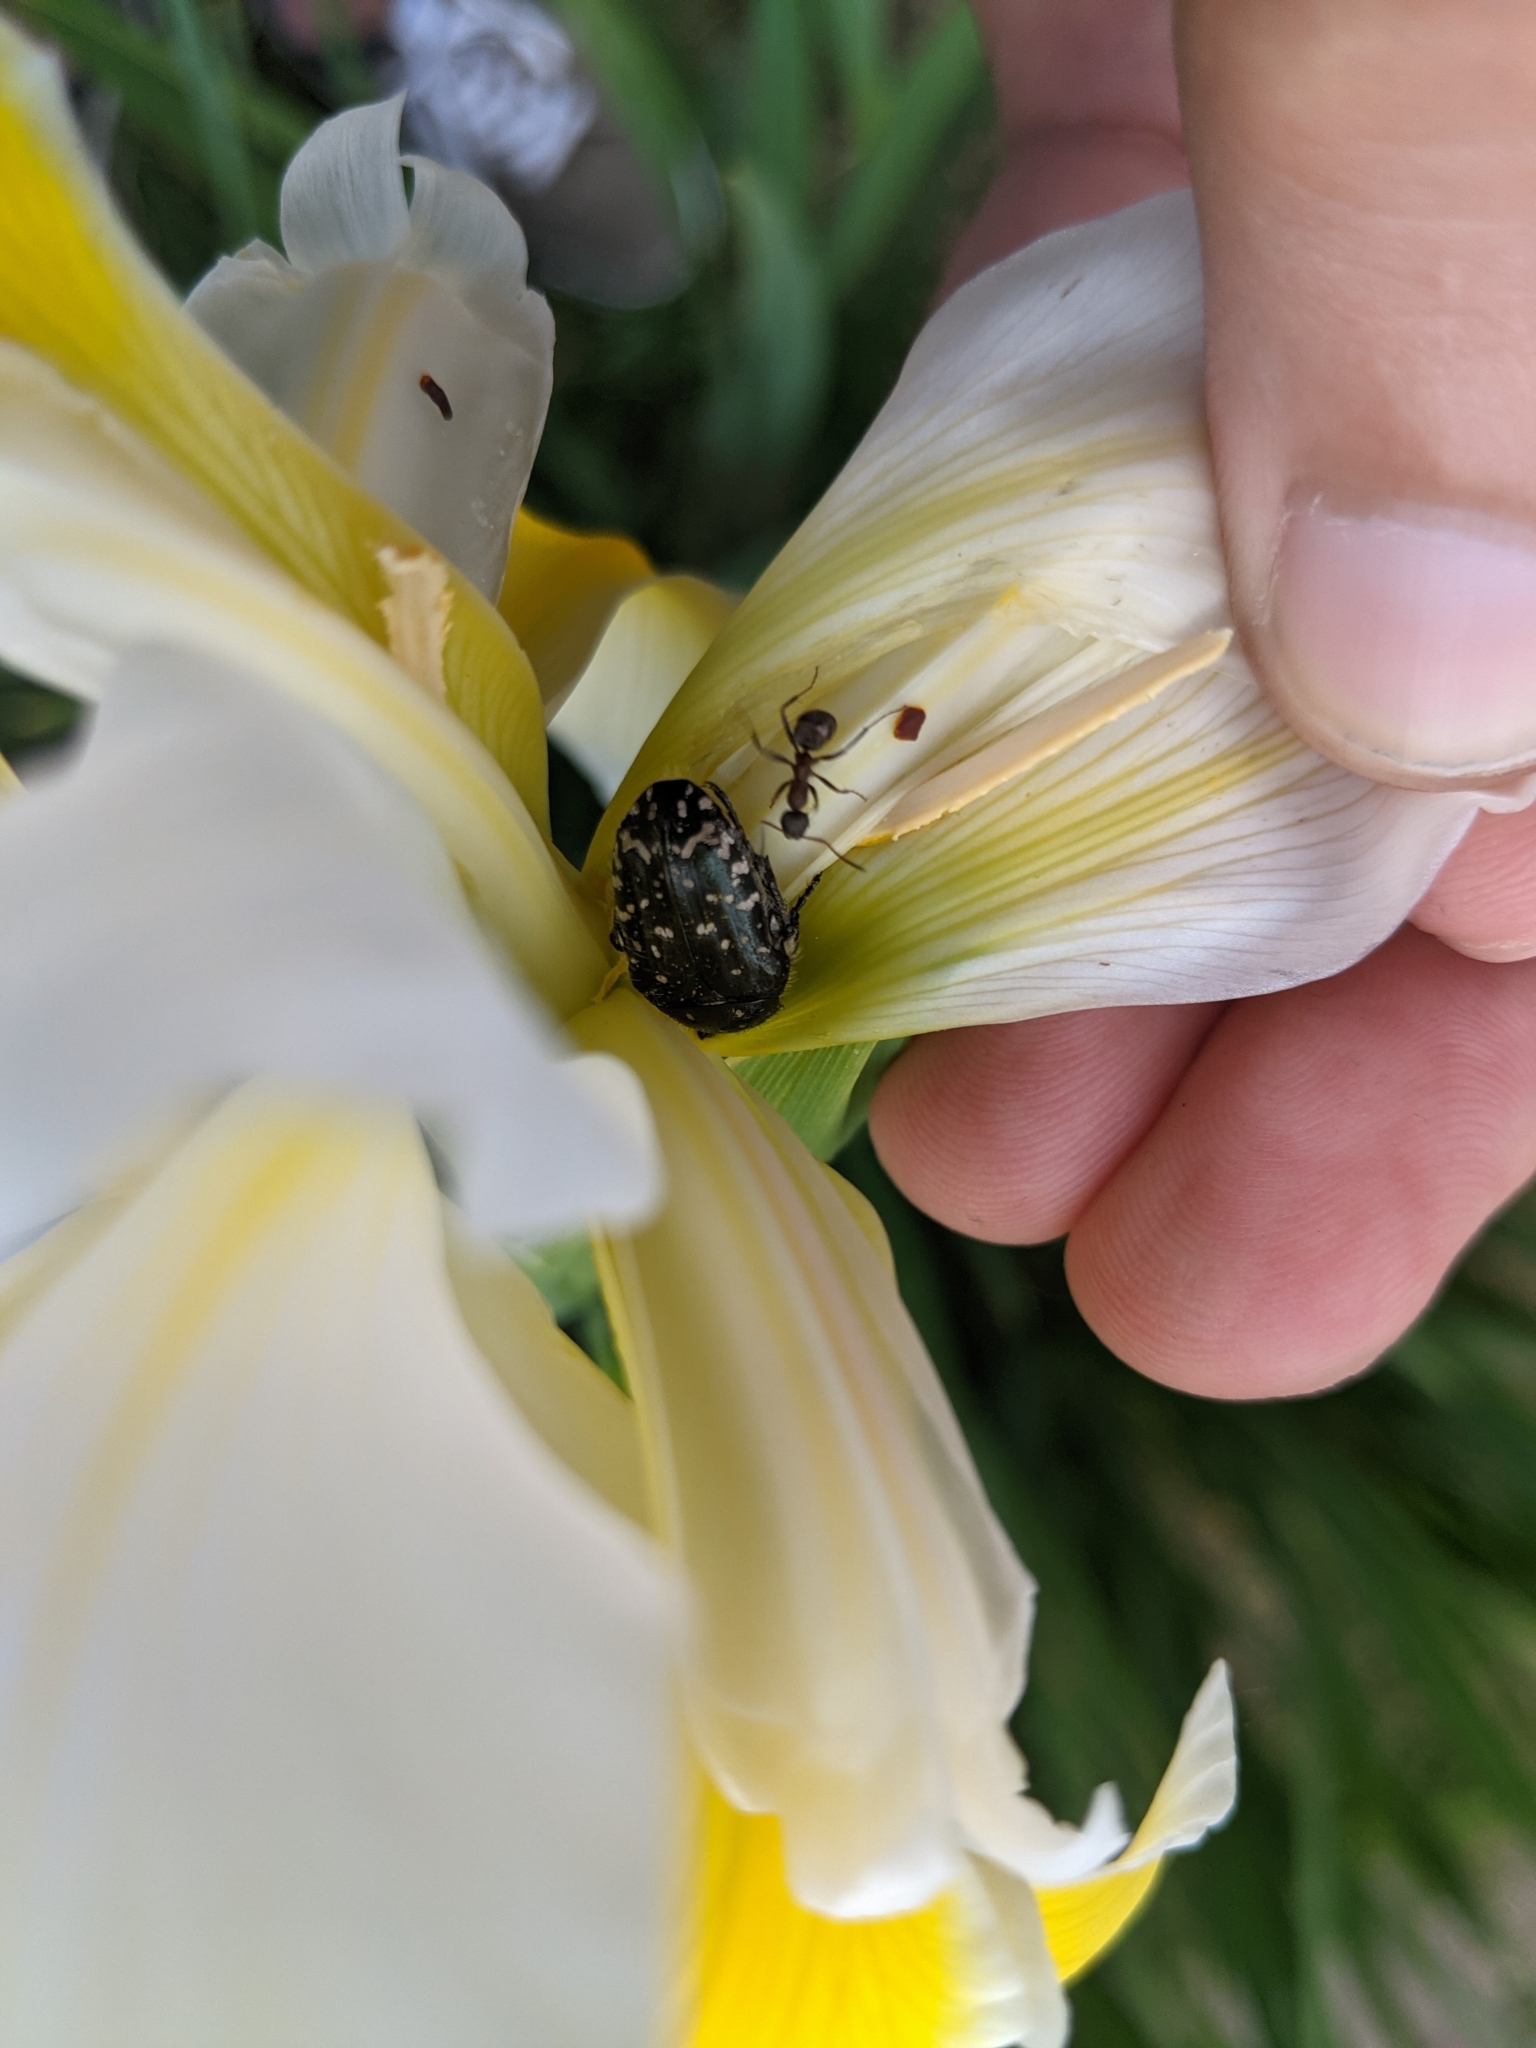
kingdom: Animalia
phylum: Arthropoda
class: Insecta
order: Coleoptera
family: Scarabaeidae
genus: Oxythyrea
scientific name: Oxythyrea funesta
